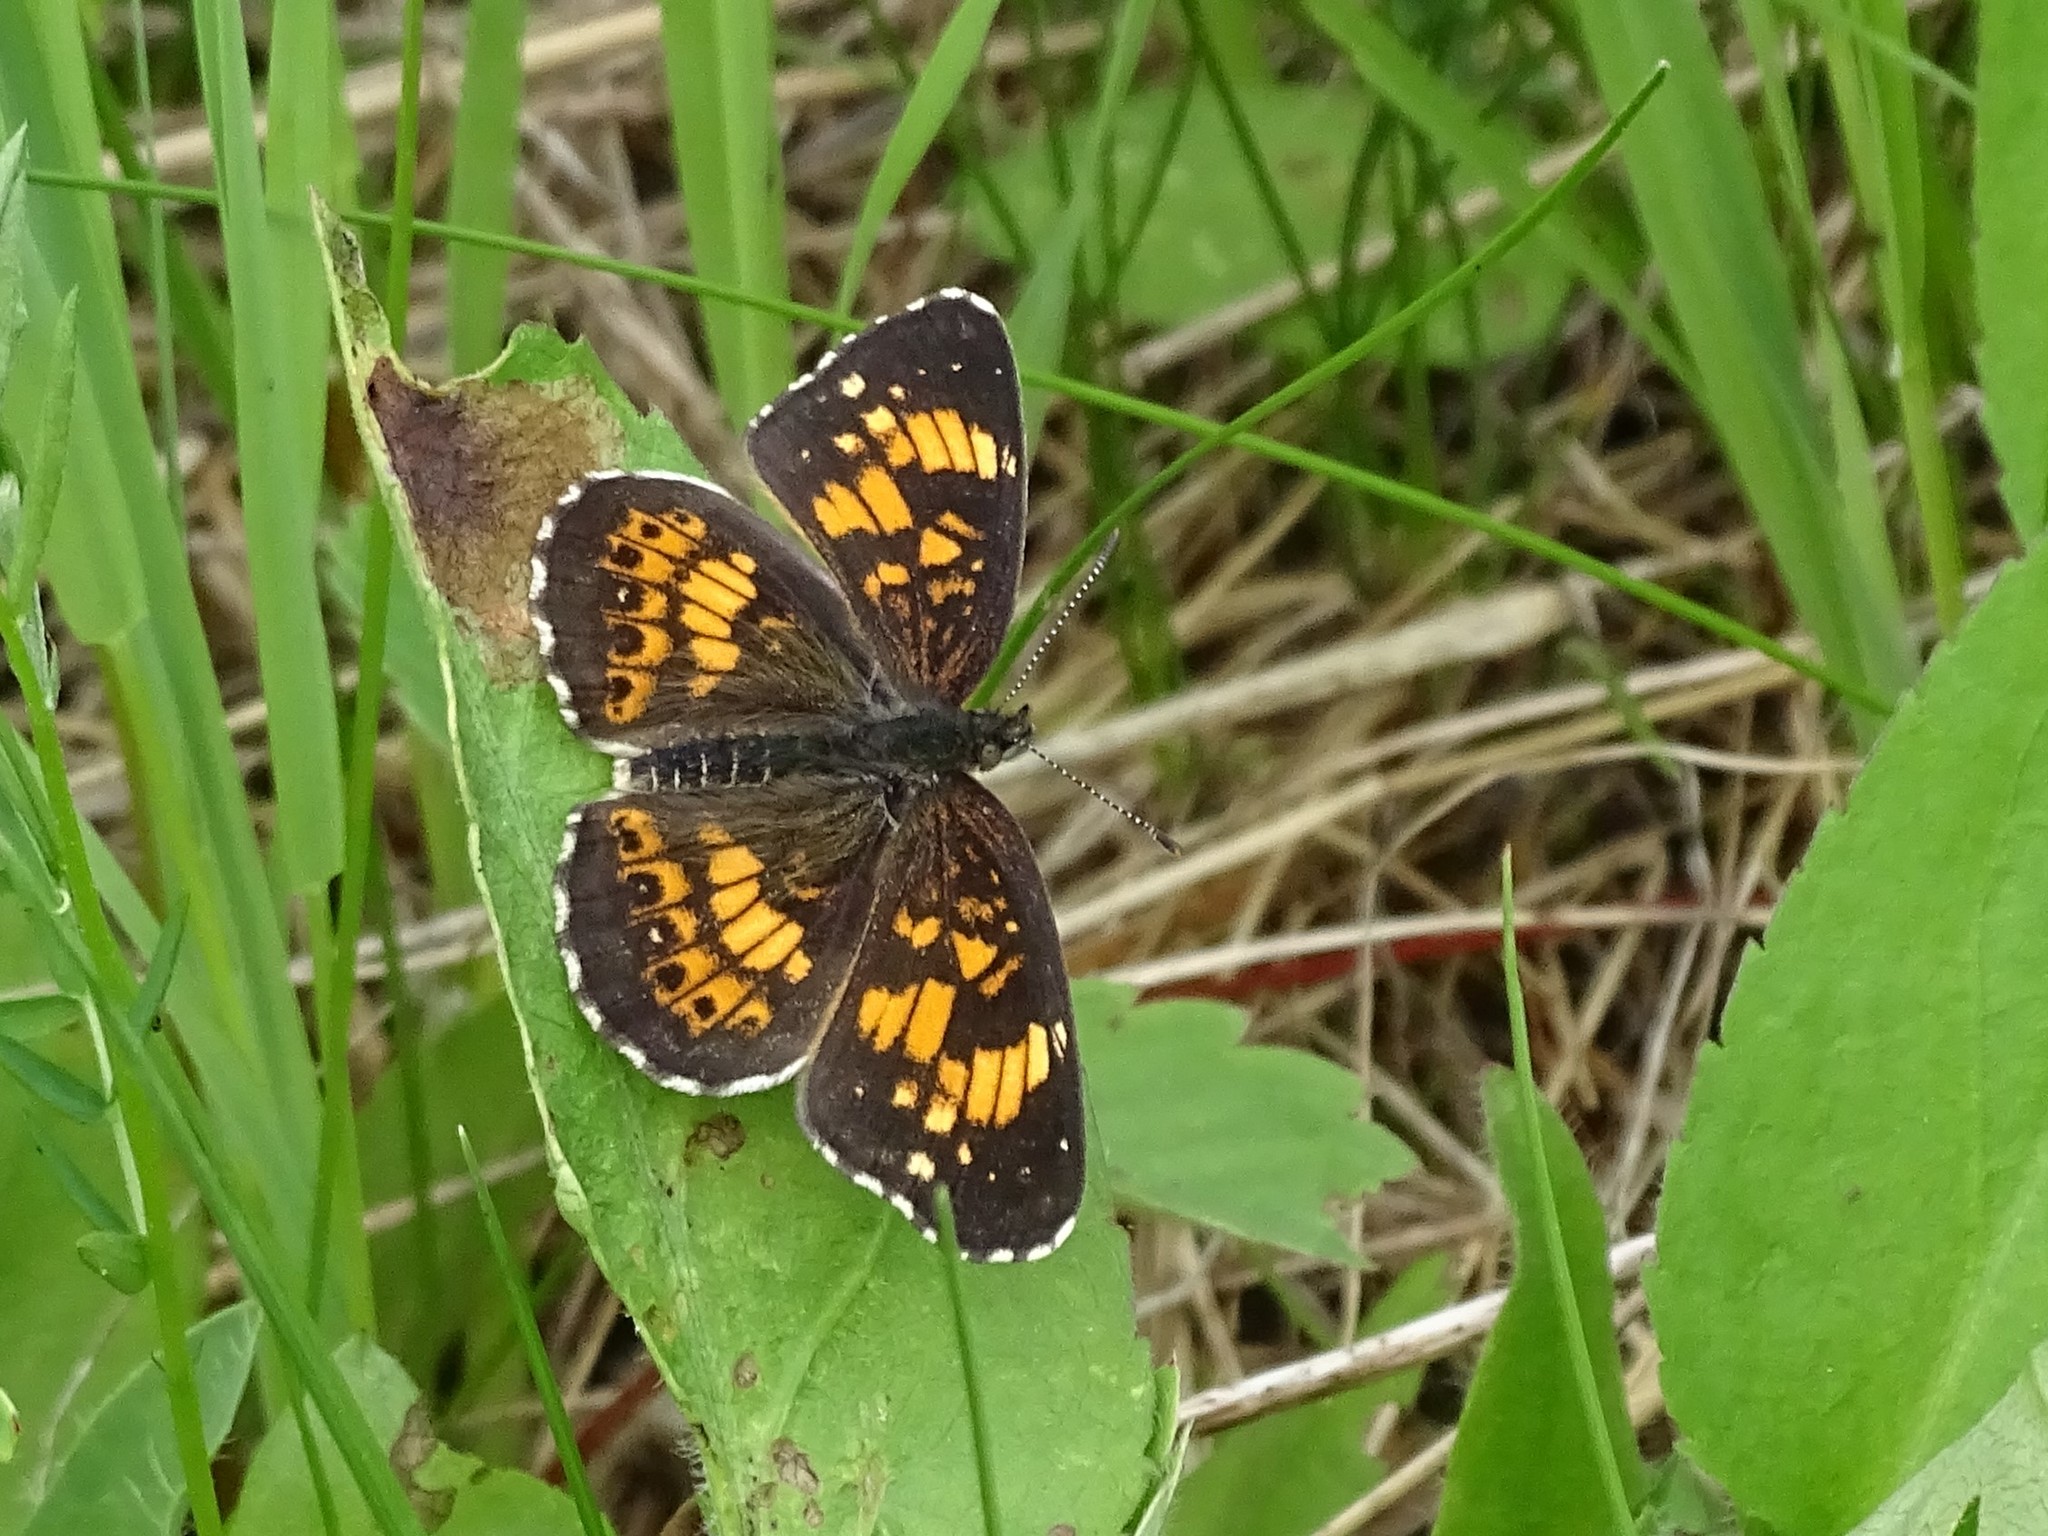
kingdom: Animalia
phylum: Arthropoda
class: Insecta
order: Lepidoptera
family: Nymphalidae
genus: Chlosyne
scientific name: Chlosyne nycteis
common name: Silvery checkerspot
